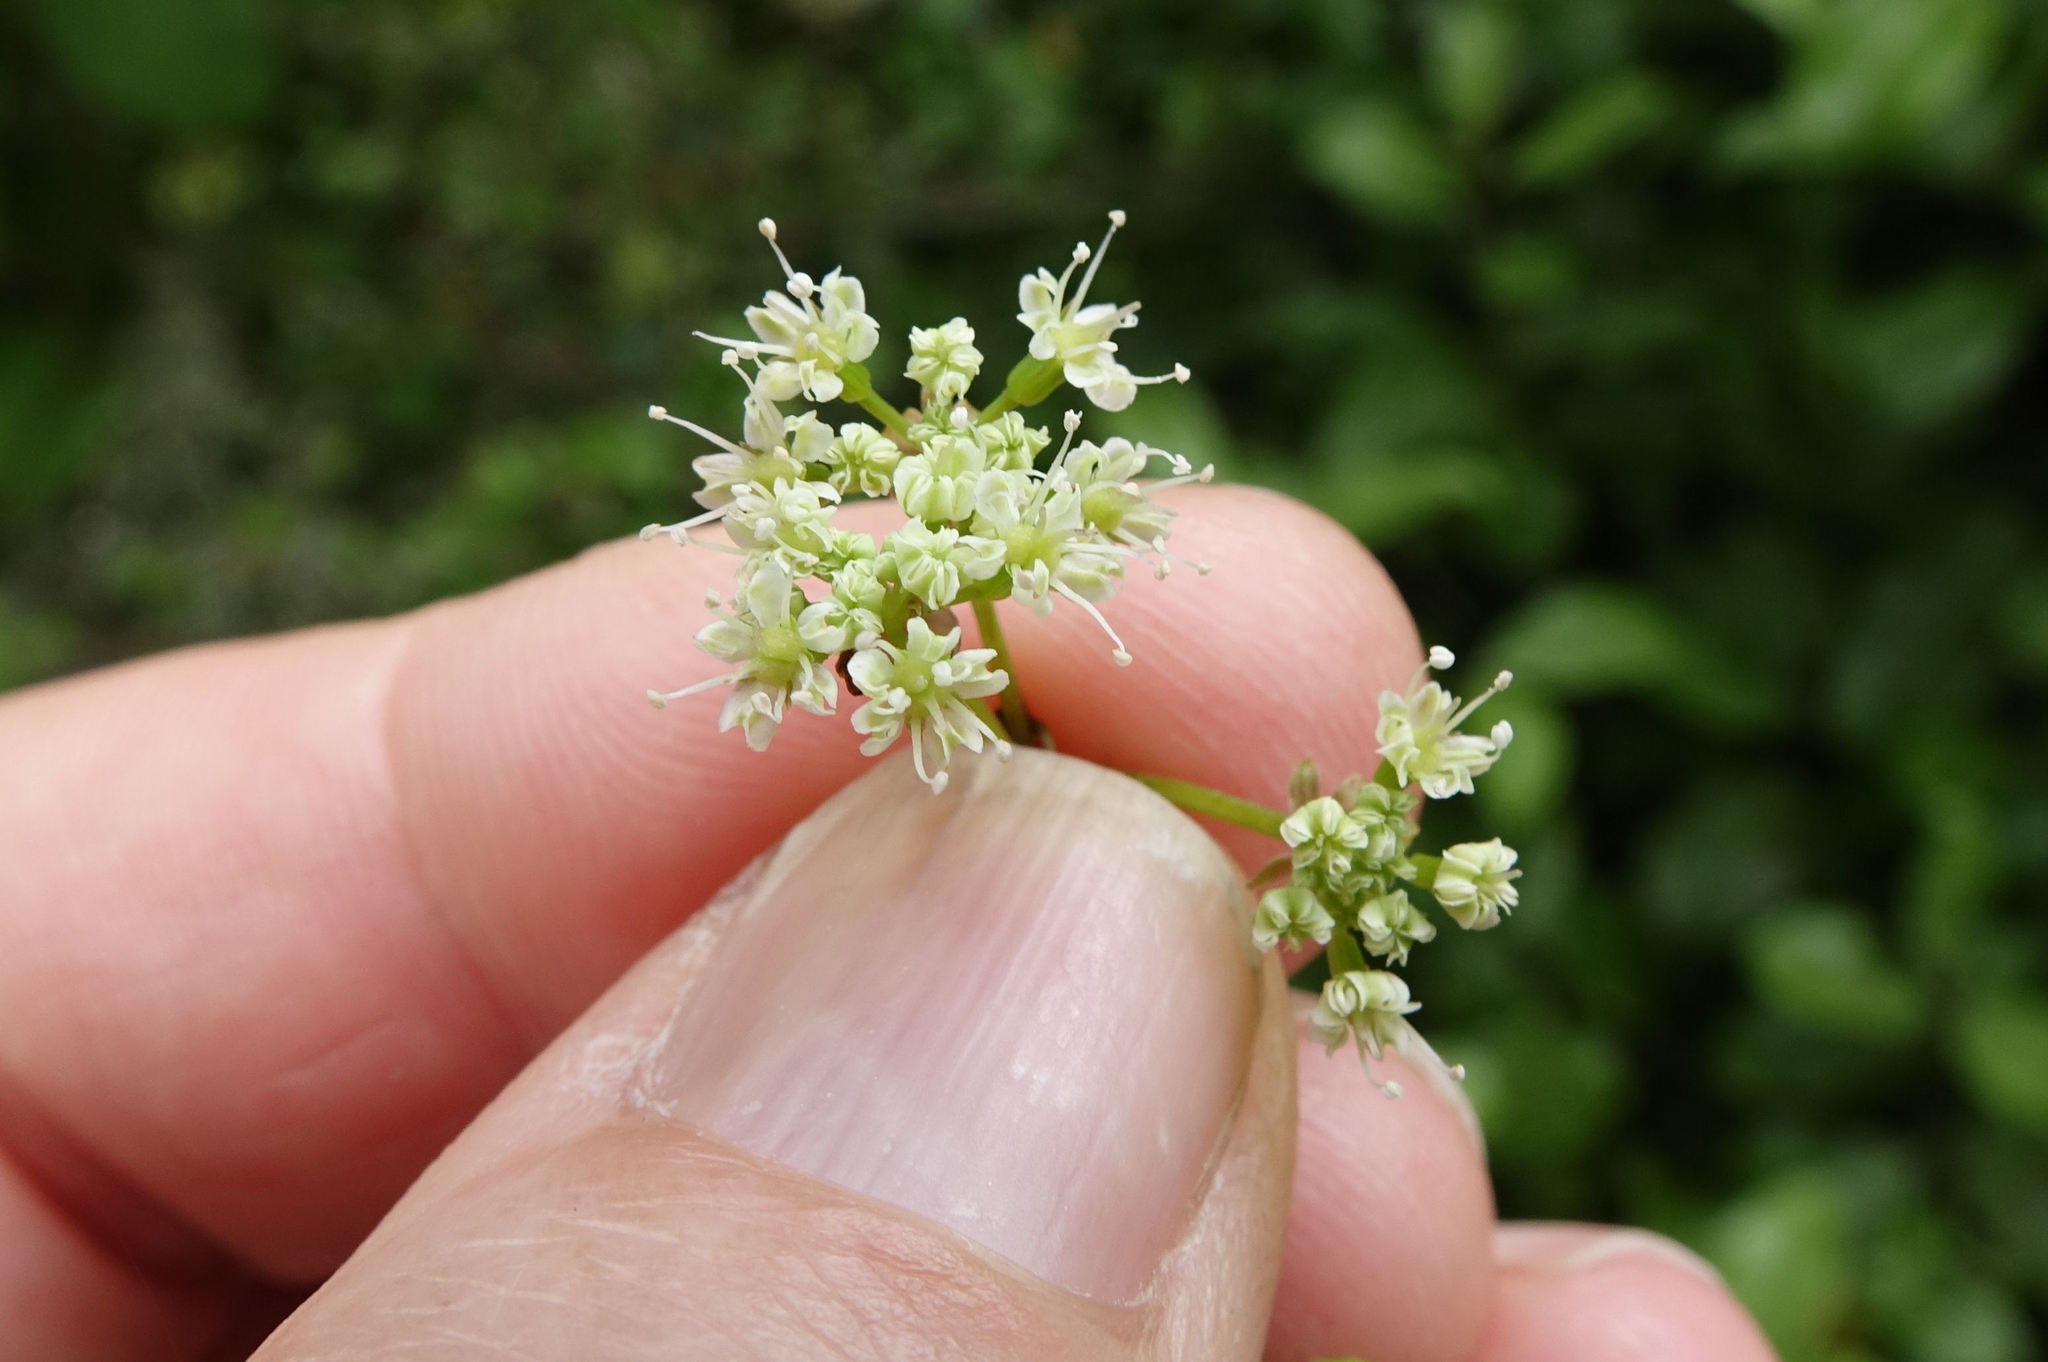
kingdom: Plantae
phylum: Tracheophyta
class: Magnoliopsida
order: Apiales
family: Apiaceae
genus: Scandia
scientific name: Scandia geniculata
